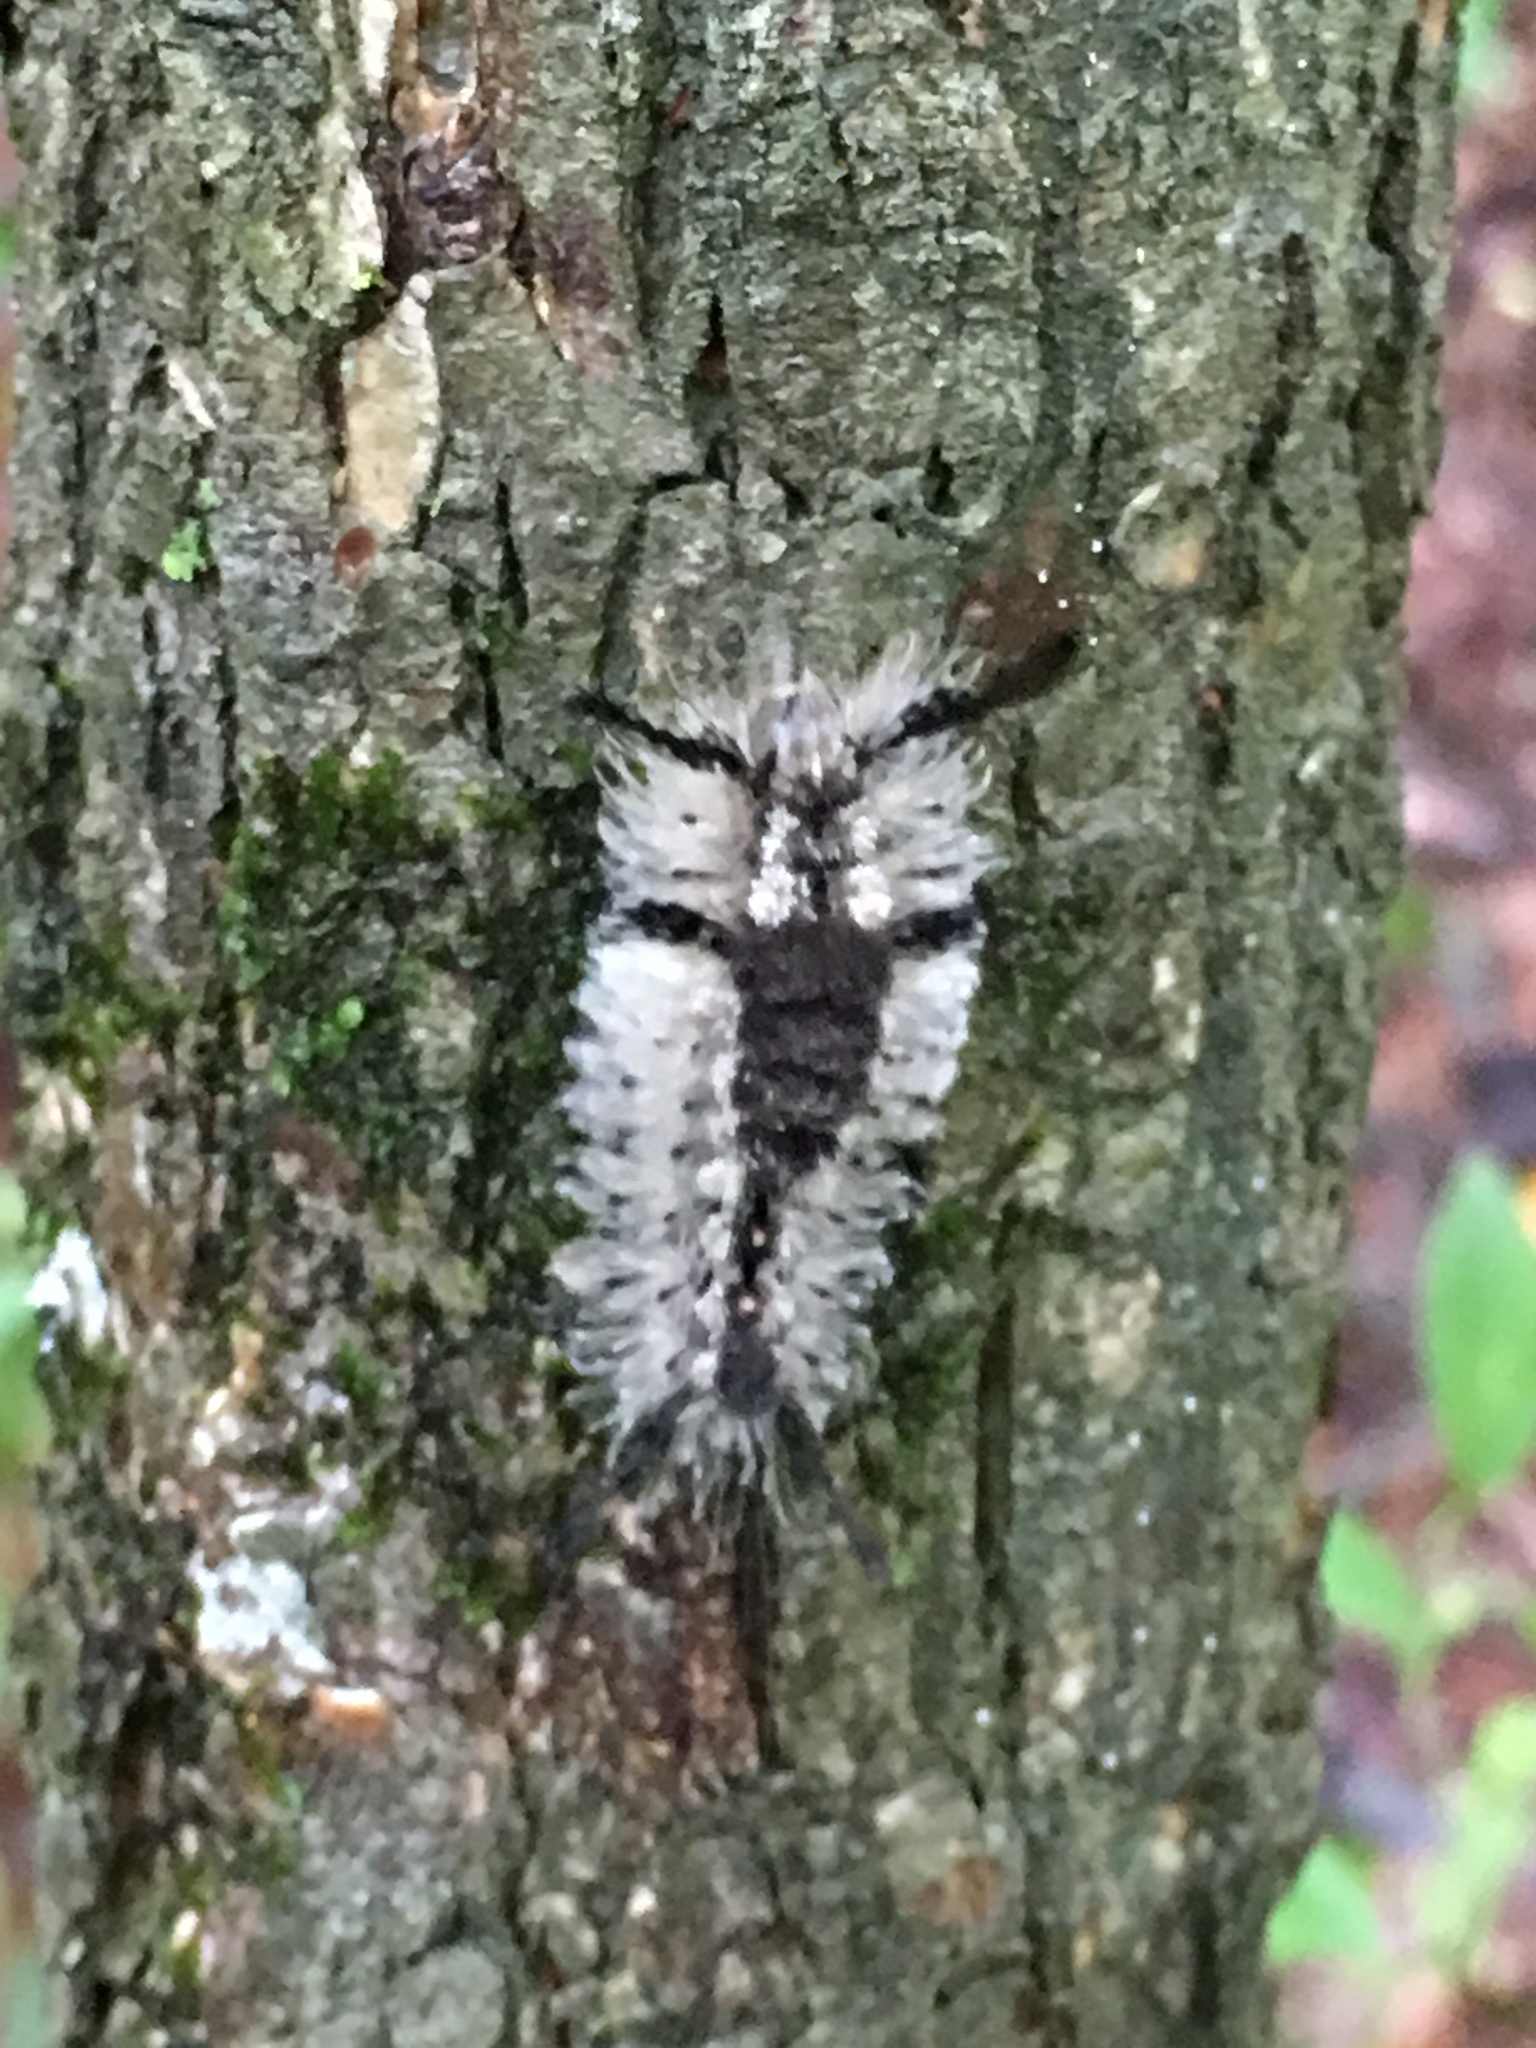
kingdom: Animalia
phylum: Arthropoda
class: Insecta
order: Lepidoptera
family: Erebidae
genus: Dasychira
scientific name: Dasychira meridionalis
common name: Southern tussock moth
